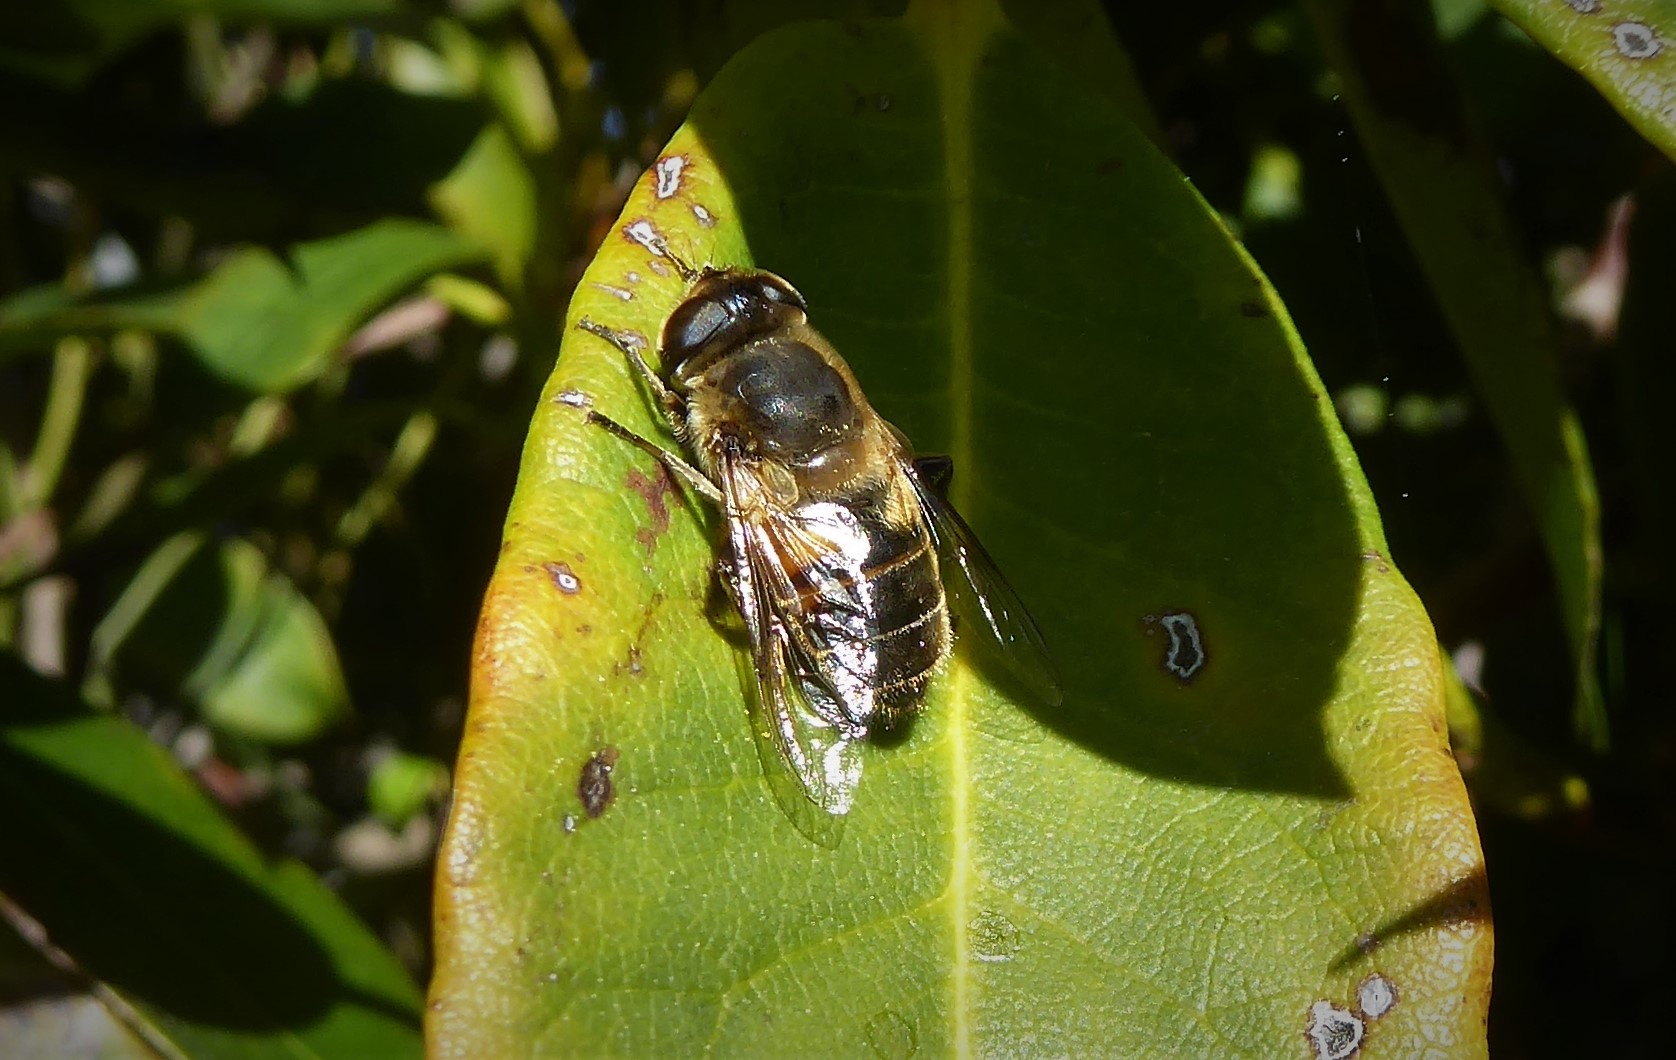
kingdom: Animalia
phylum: Arthropoda
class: Insecta
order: Diptera
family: Syrphidae
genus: Eristalis
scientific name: Eristalis tenax
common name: Drone fly
